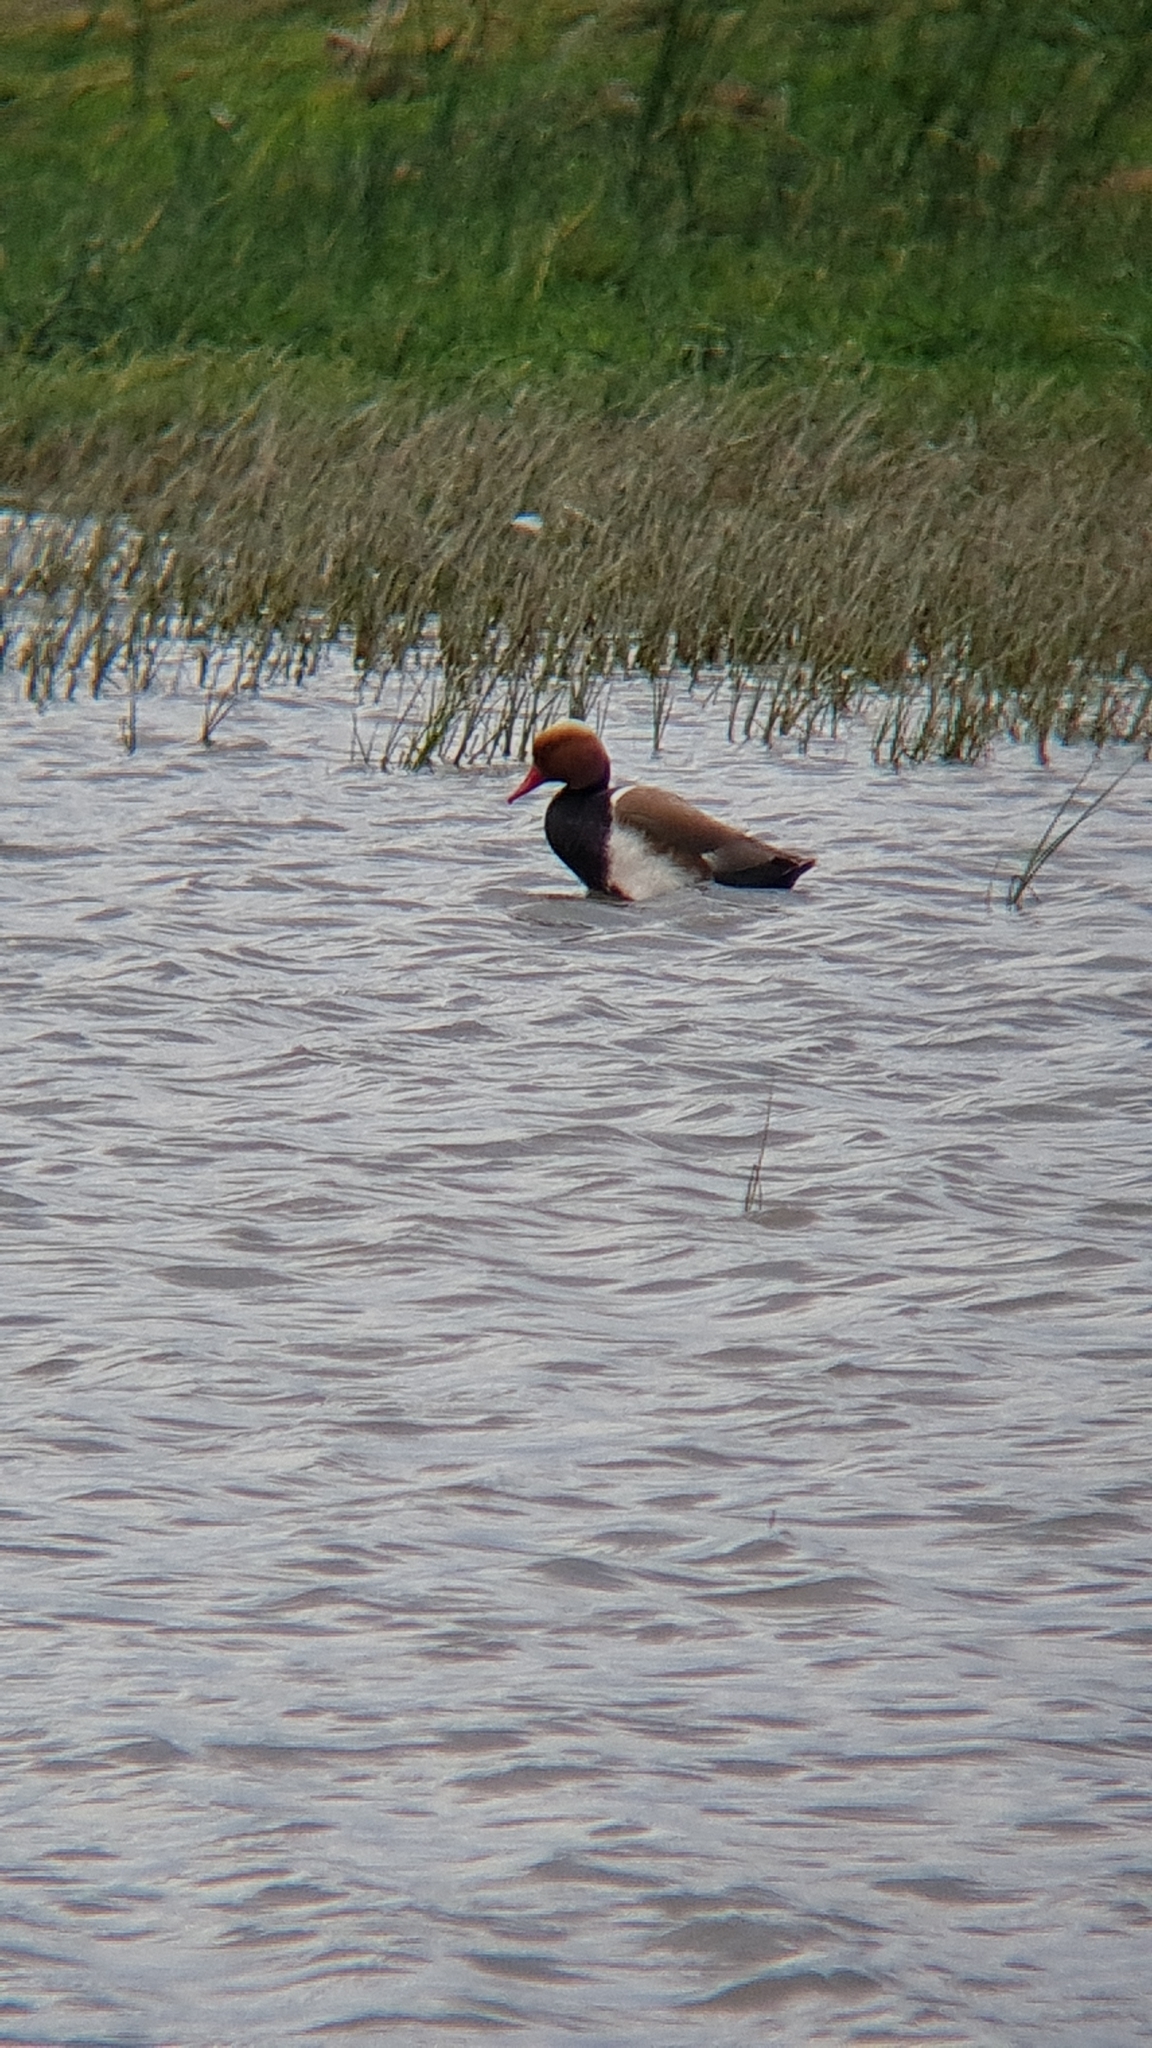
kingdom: Animalia
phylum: Chordata
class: Aves
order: Anseriformes
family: Anatidae
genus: Netta
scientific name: Netta rufina
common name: Red-crested pochard
